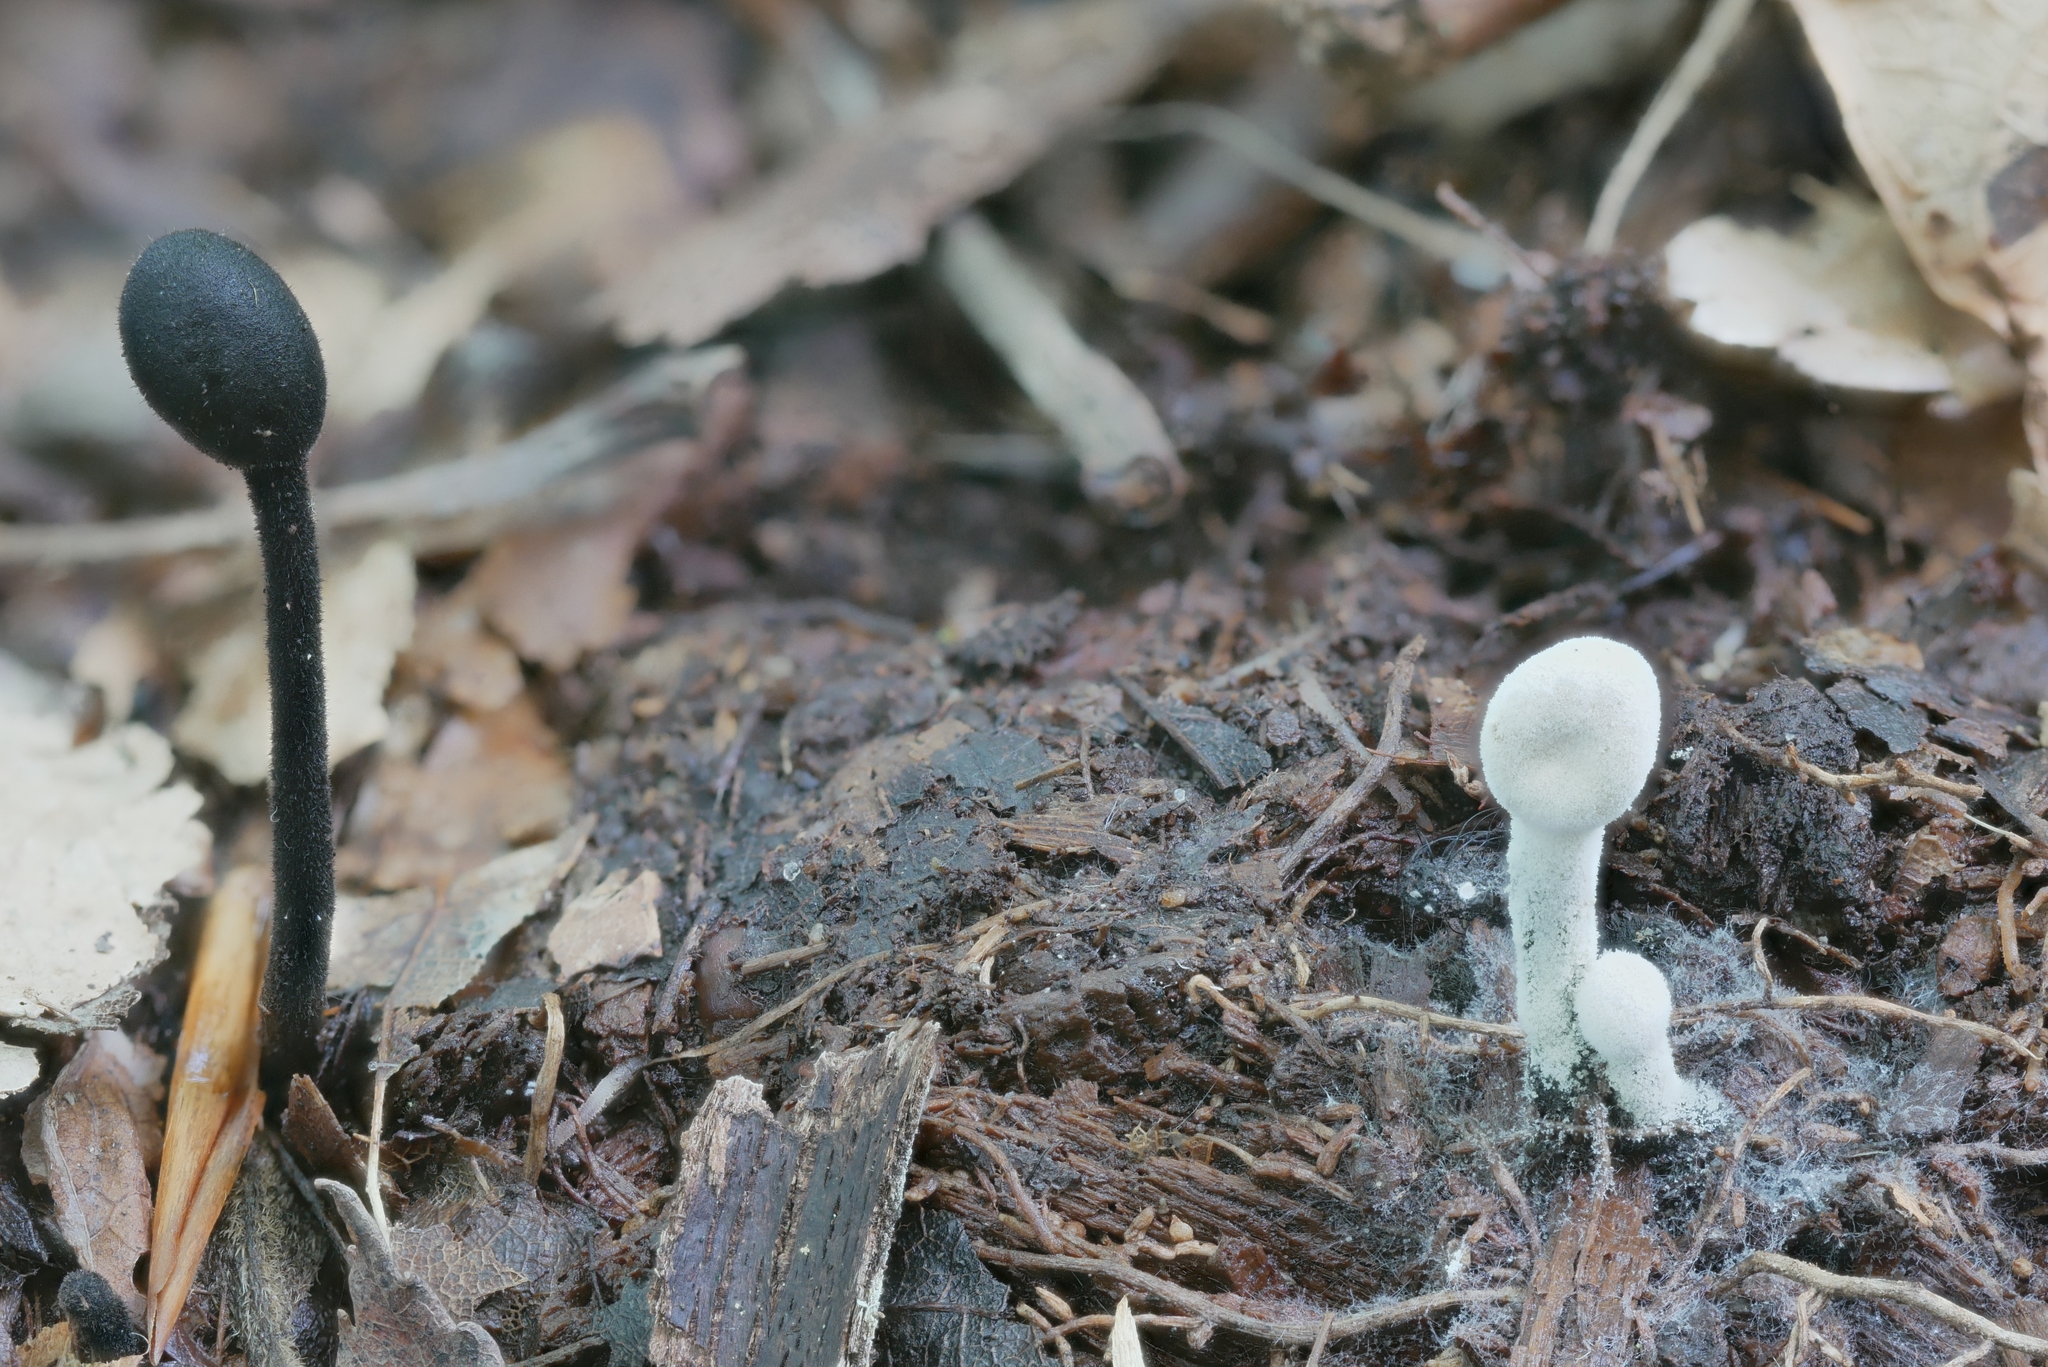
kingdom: Fungi
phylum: Ascomycota
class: Sordariomycetes
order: Hypocreales
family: Hypocreaceae
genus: Hypomyces
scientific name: Hypomyces papulasporae
